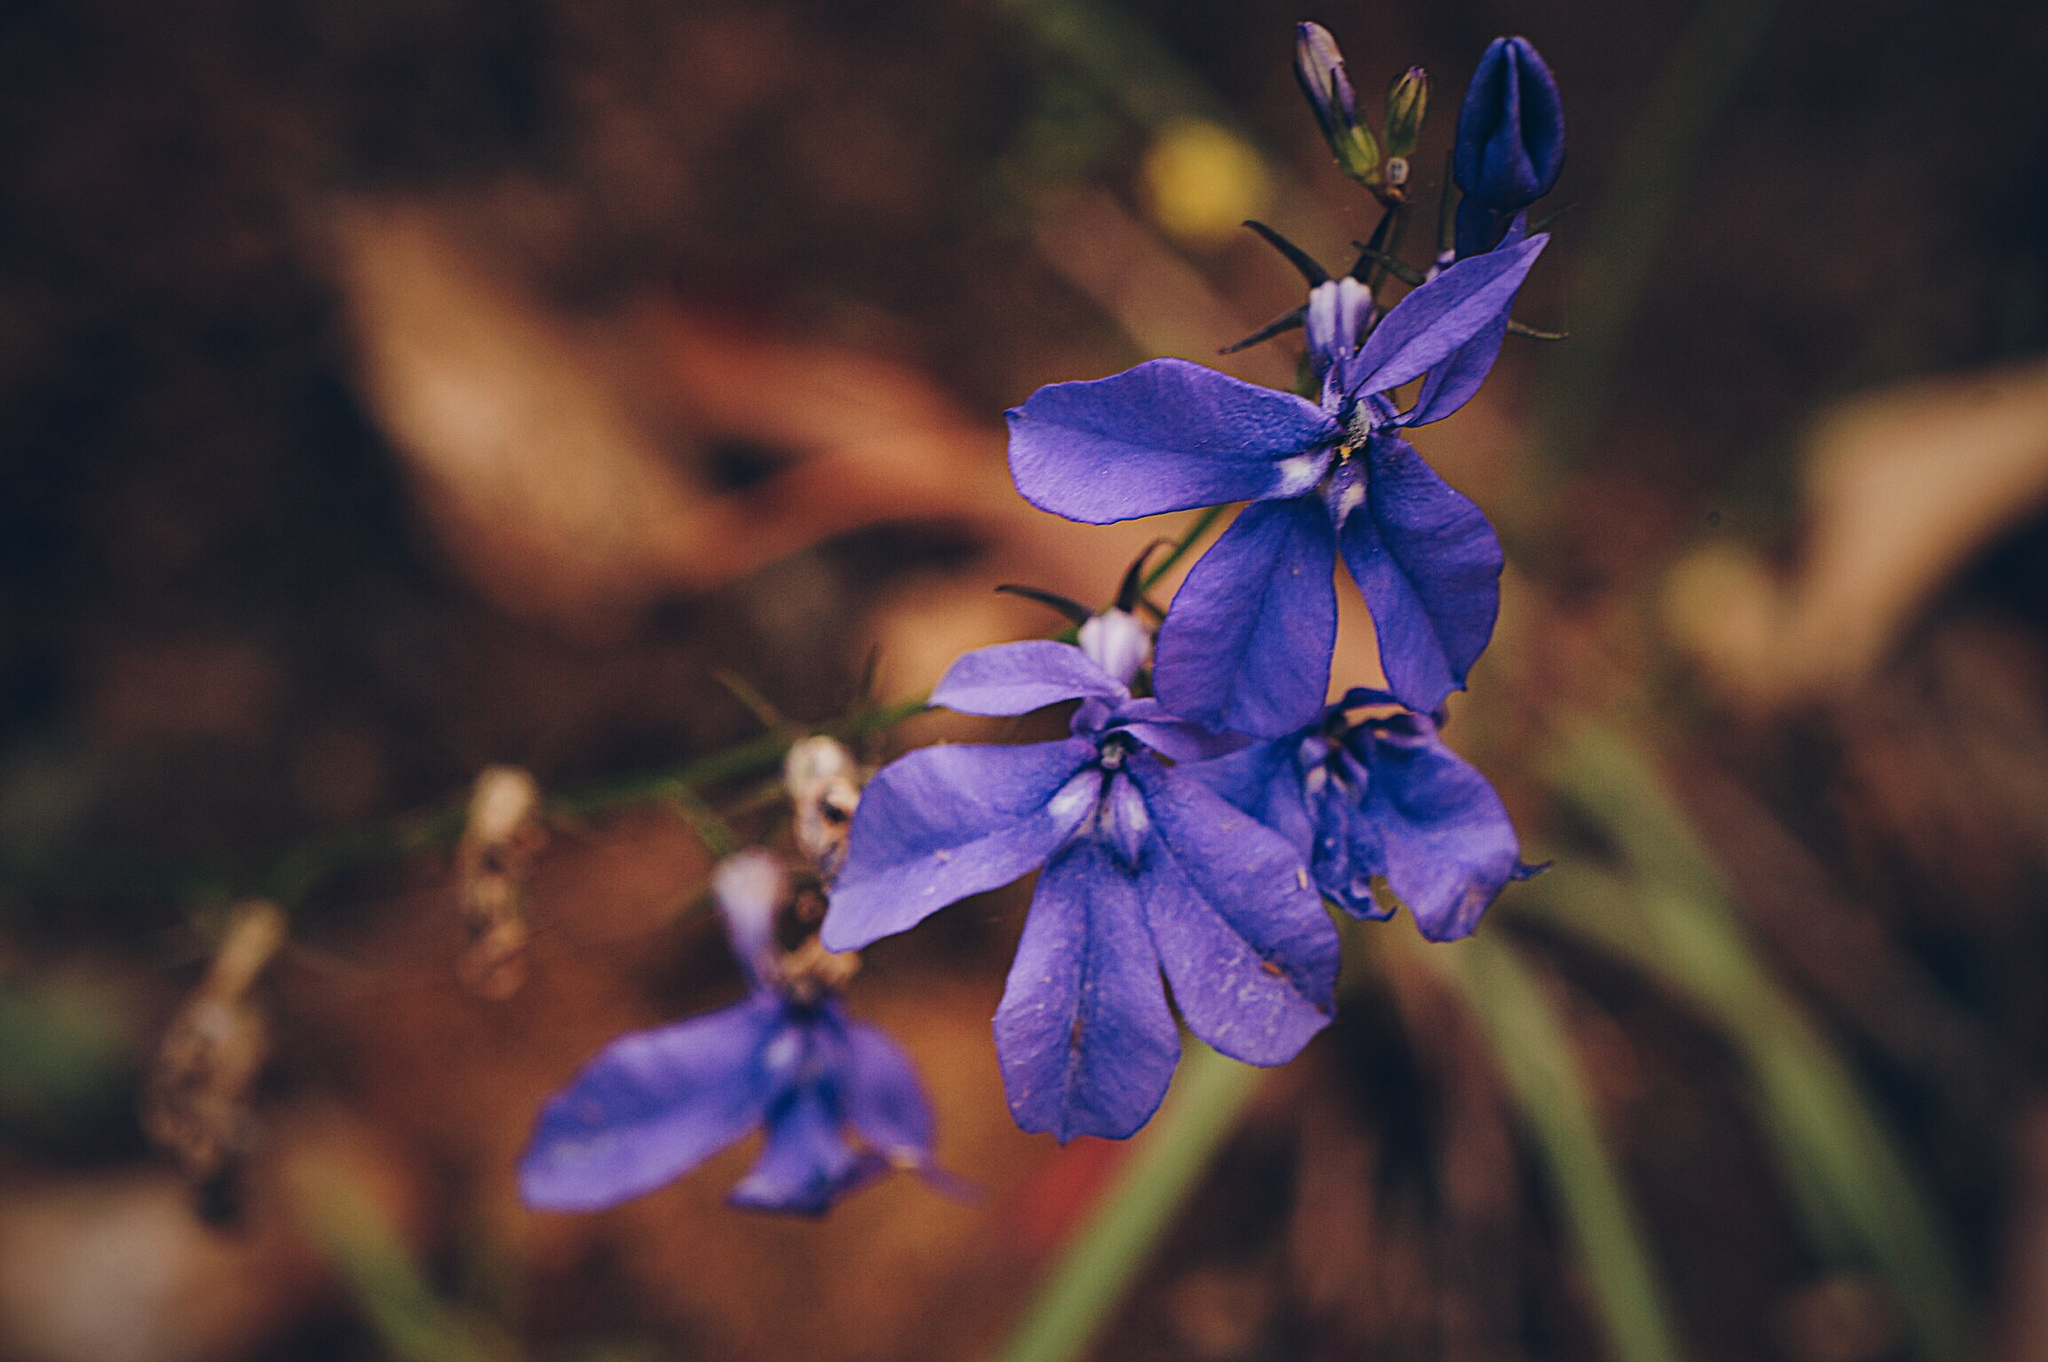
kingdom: Plantae
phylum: Tracheophyta
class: Magnoliopsida
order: Asterales
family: Campanulaceae
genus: Lobelia
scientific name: Lobelia sublibera
